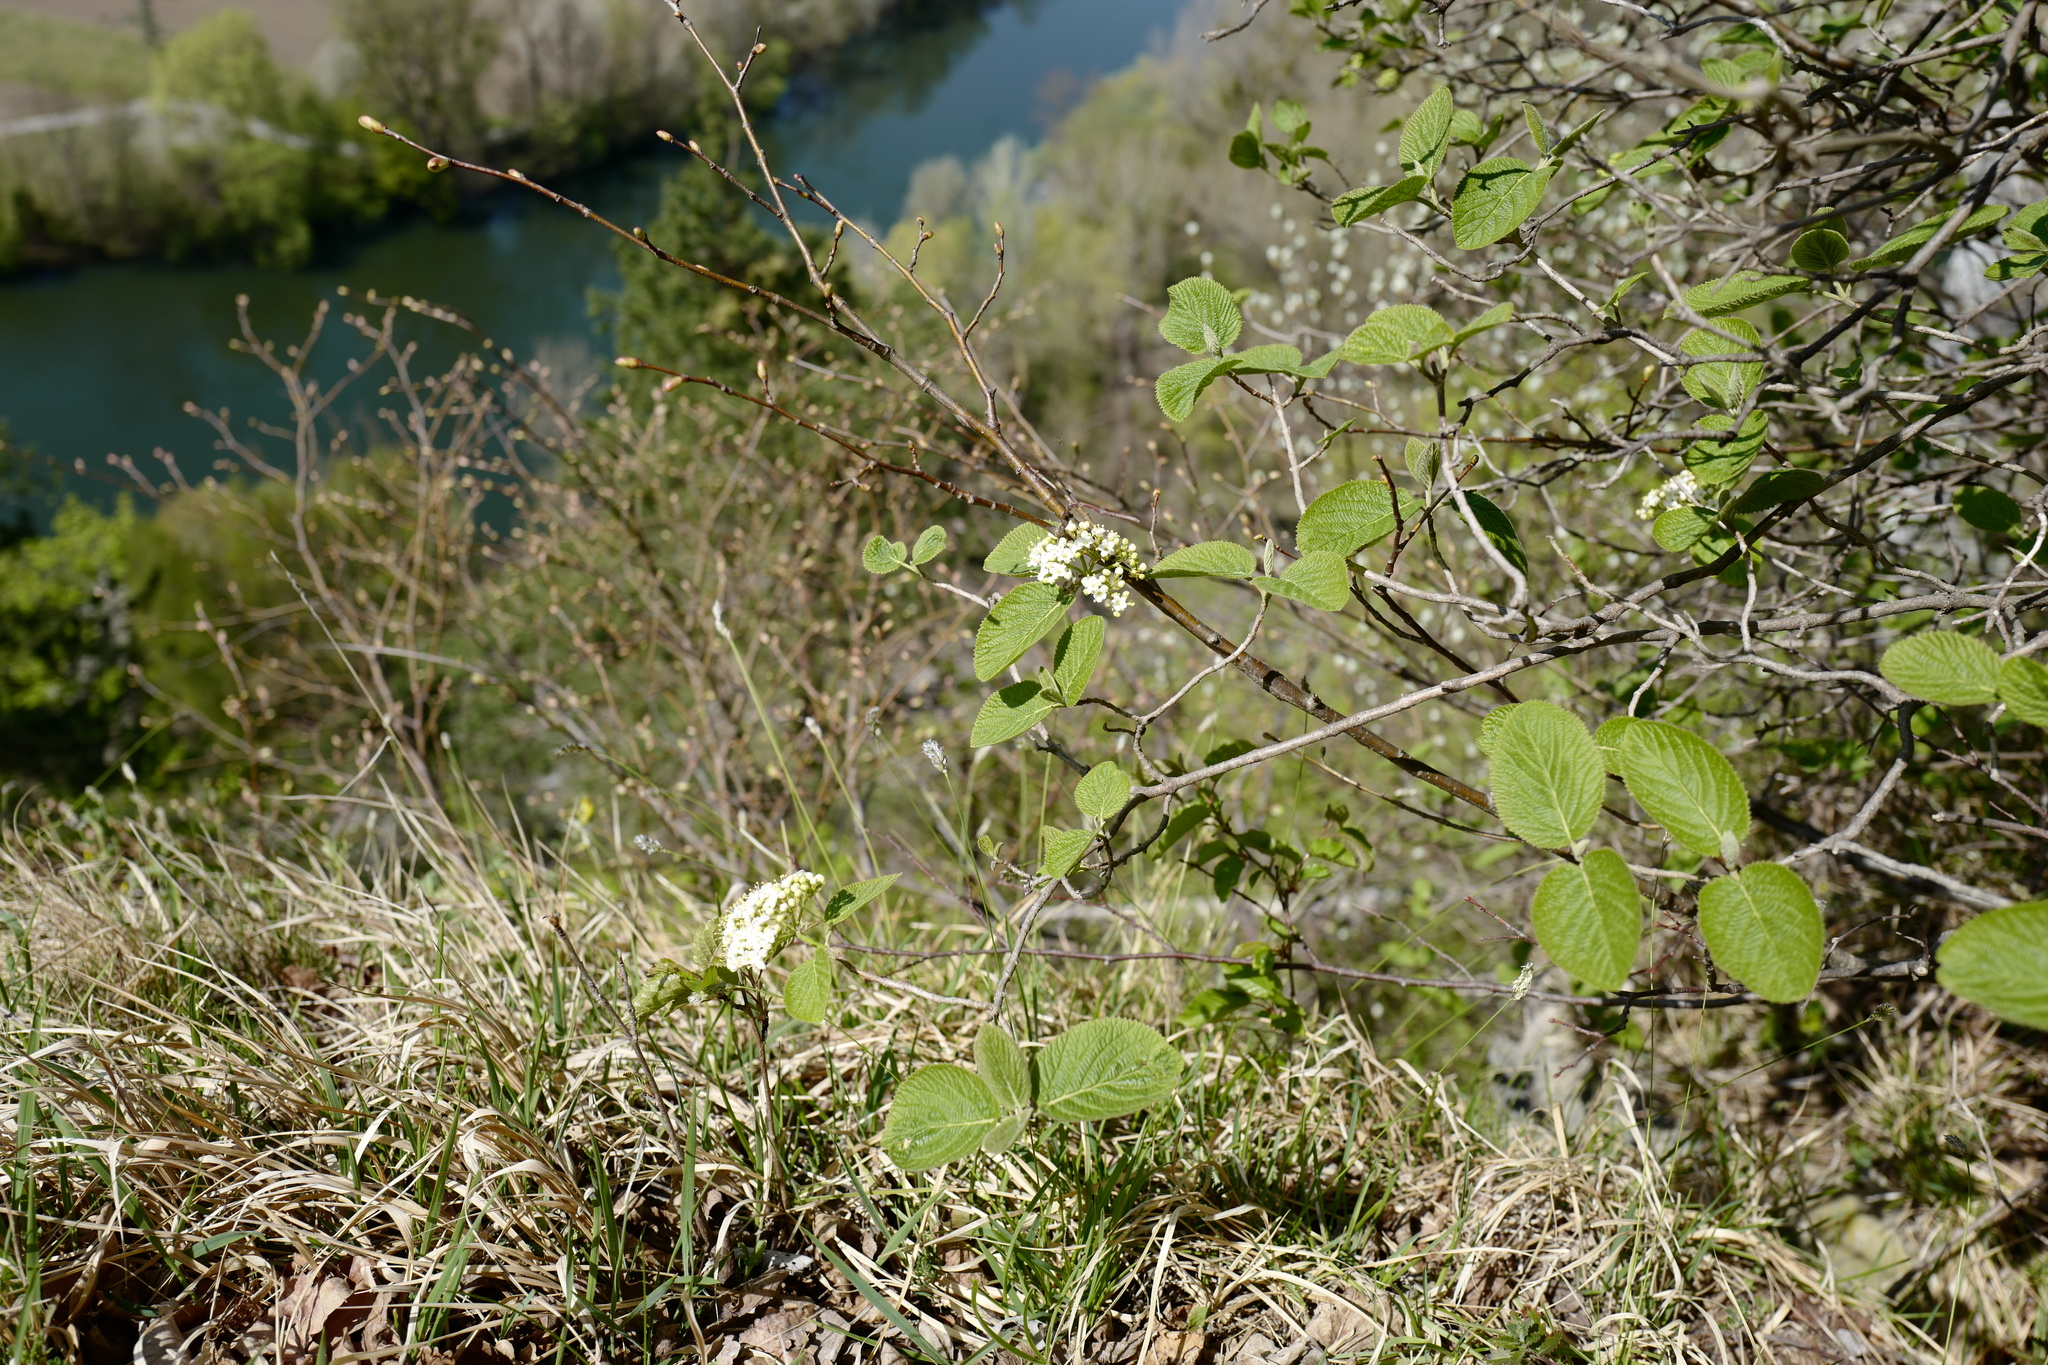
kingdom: Plantae
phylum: Tracheophyta
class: Magnoliopsida
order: Dipsacales
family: Viburnaceae
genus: Viburnum
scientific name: Viburnum lantana
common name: Wayfaring tree
